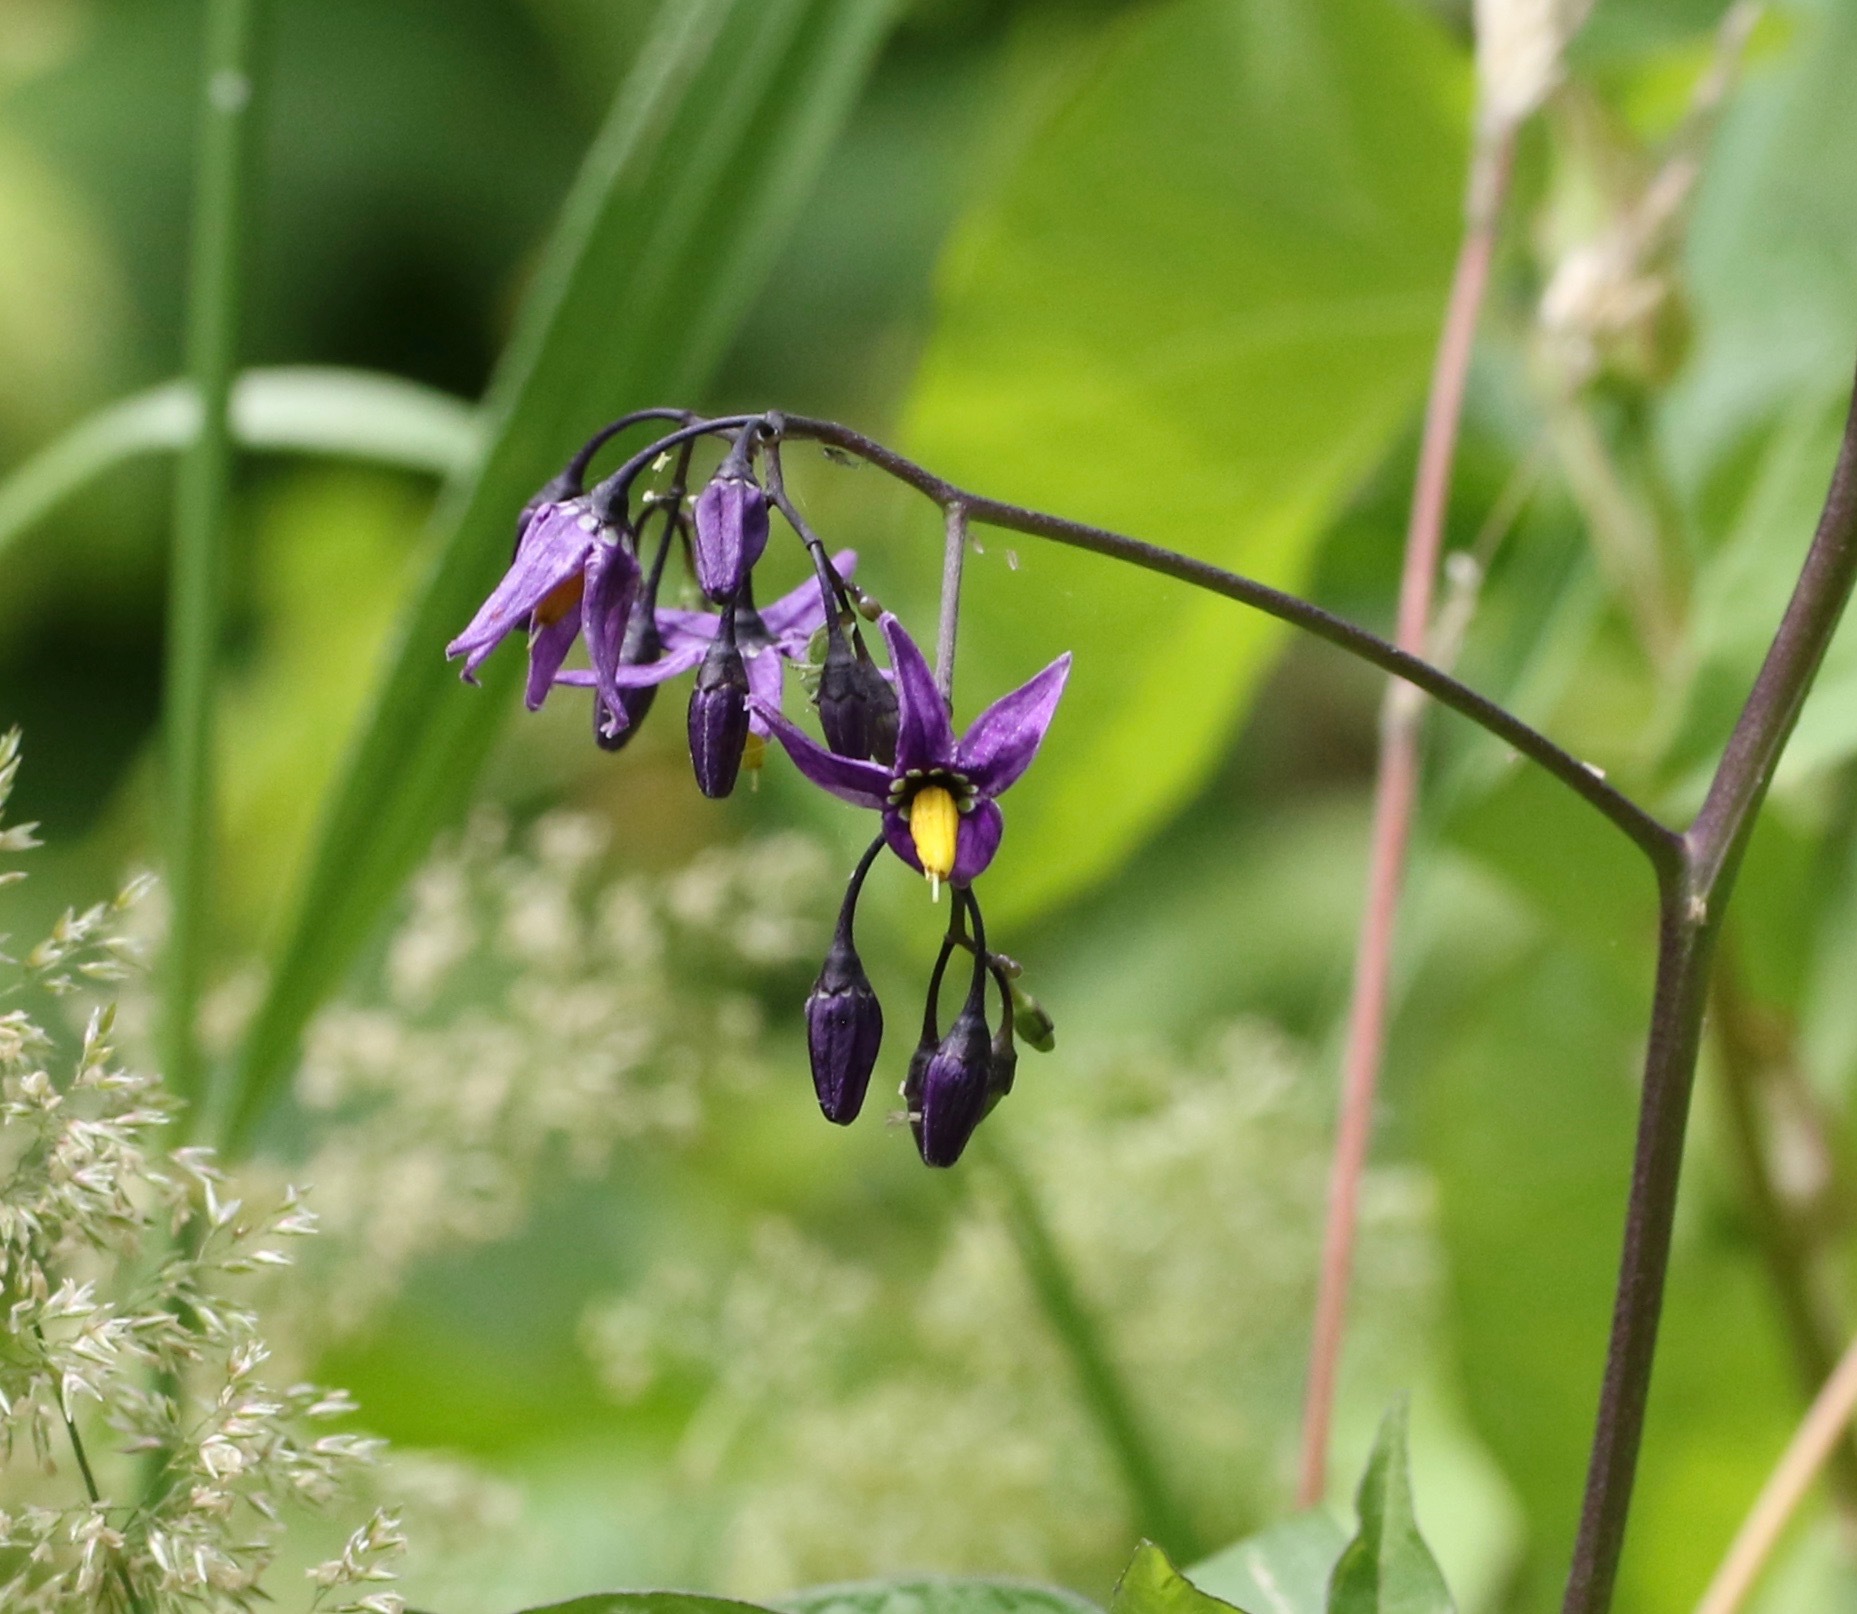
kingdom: Plantae
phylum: Tracheophyta
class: Magnoliopsida
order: Solanales
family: Solanaceae
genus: Solanum
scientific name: Solanum dulcamara
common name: Climbing nightshade
